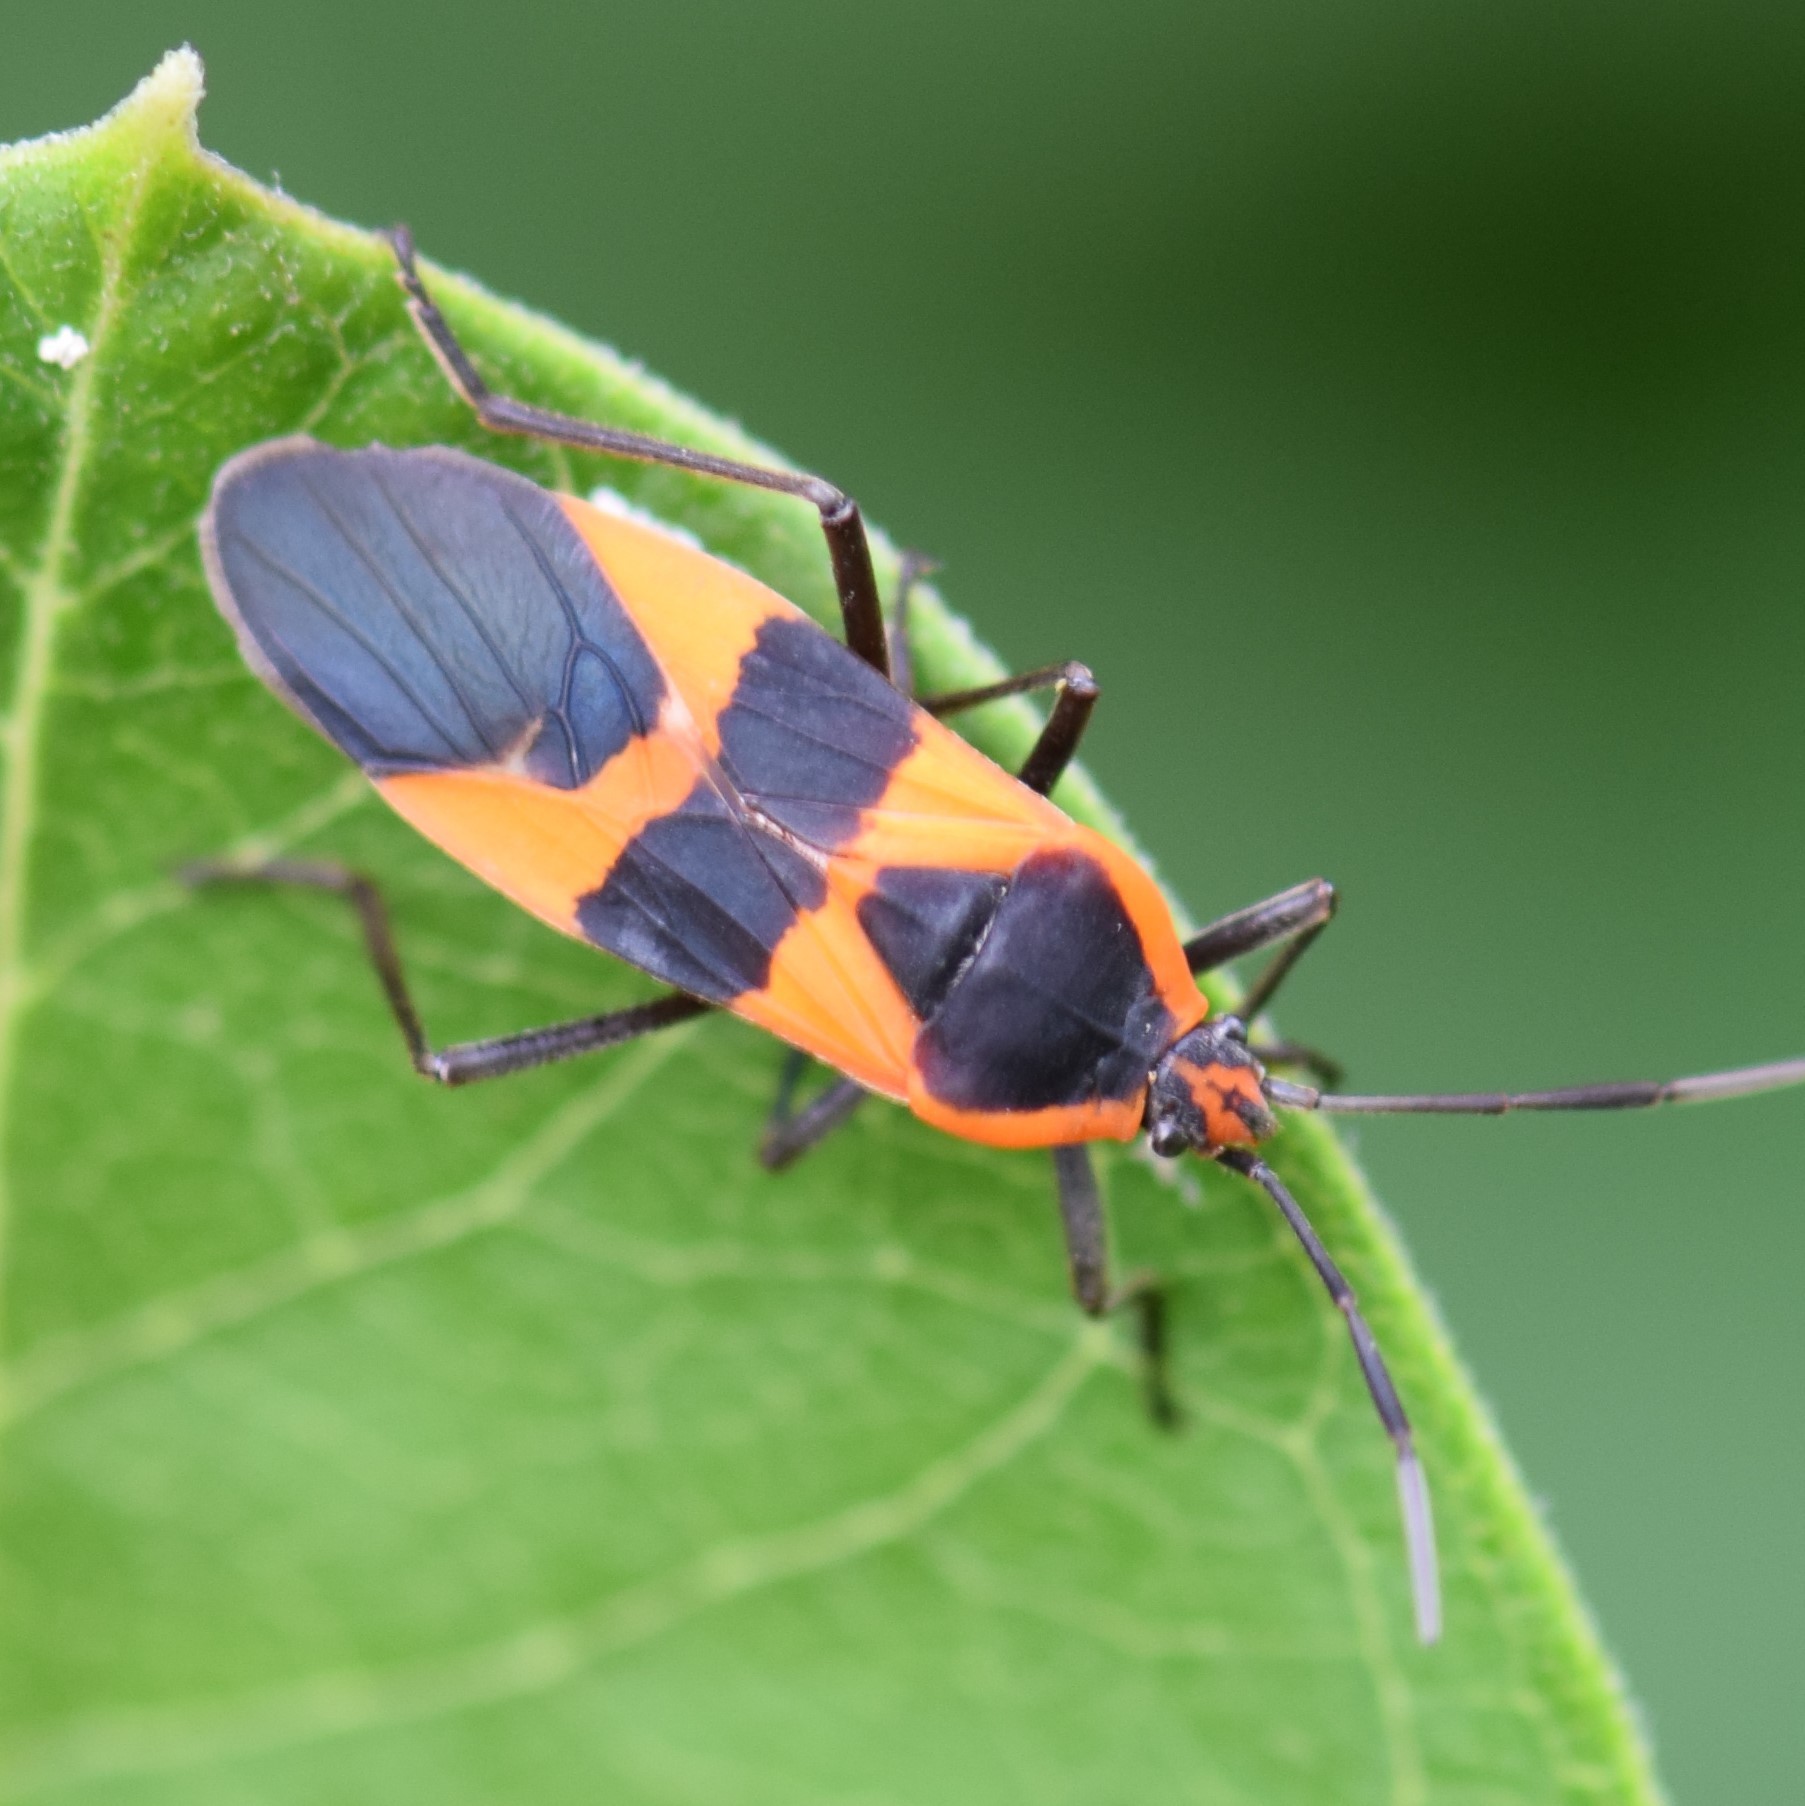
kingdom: Animalia
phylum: Arthropoda
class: Insecta
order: Hemiptera
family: Lygaeidae
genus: Oncopeltus
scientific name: Oncopeltus fasciatus
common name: Large milkweed bug
